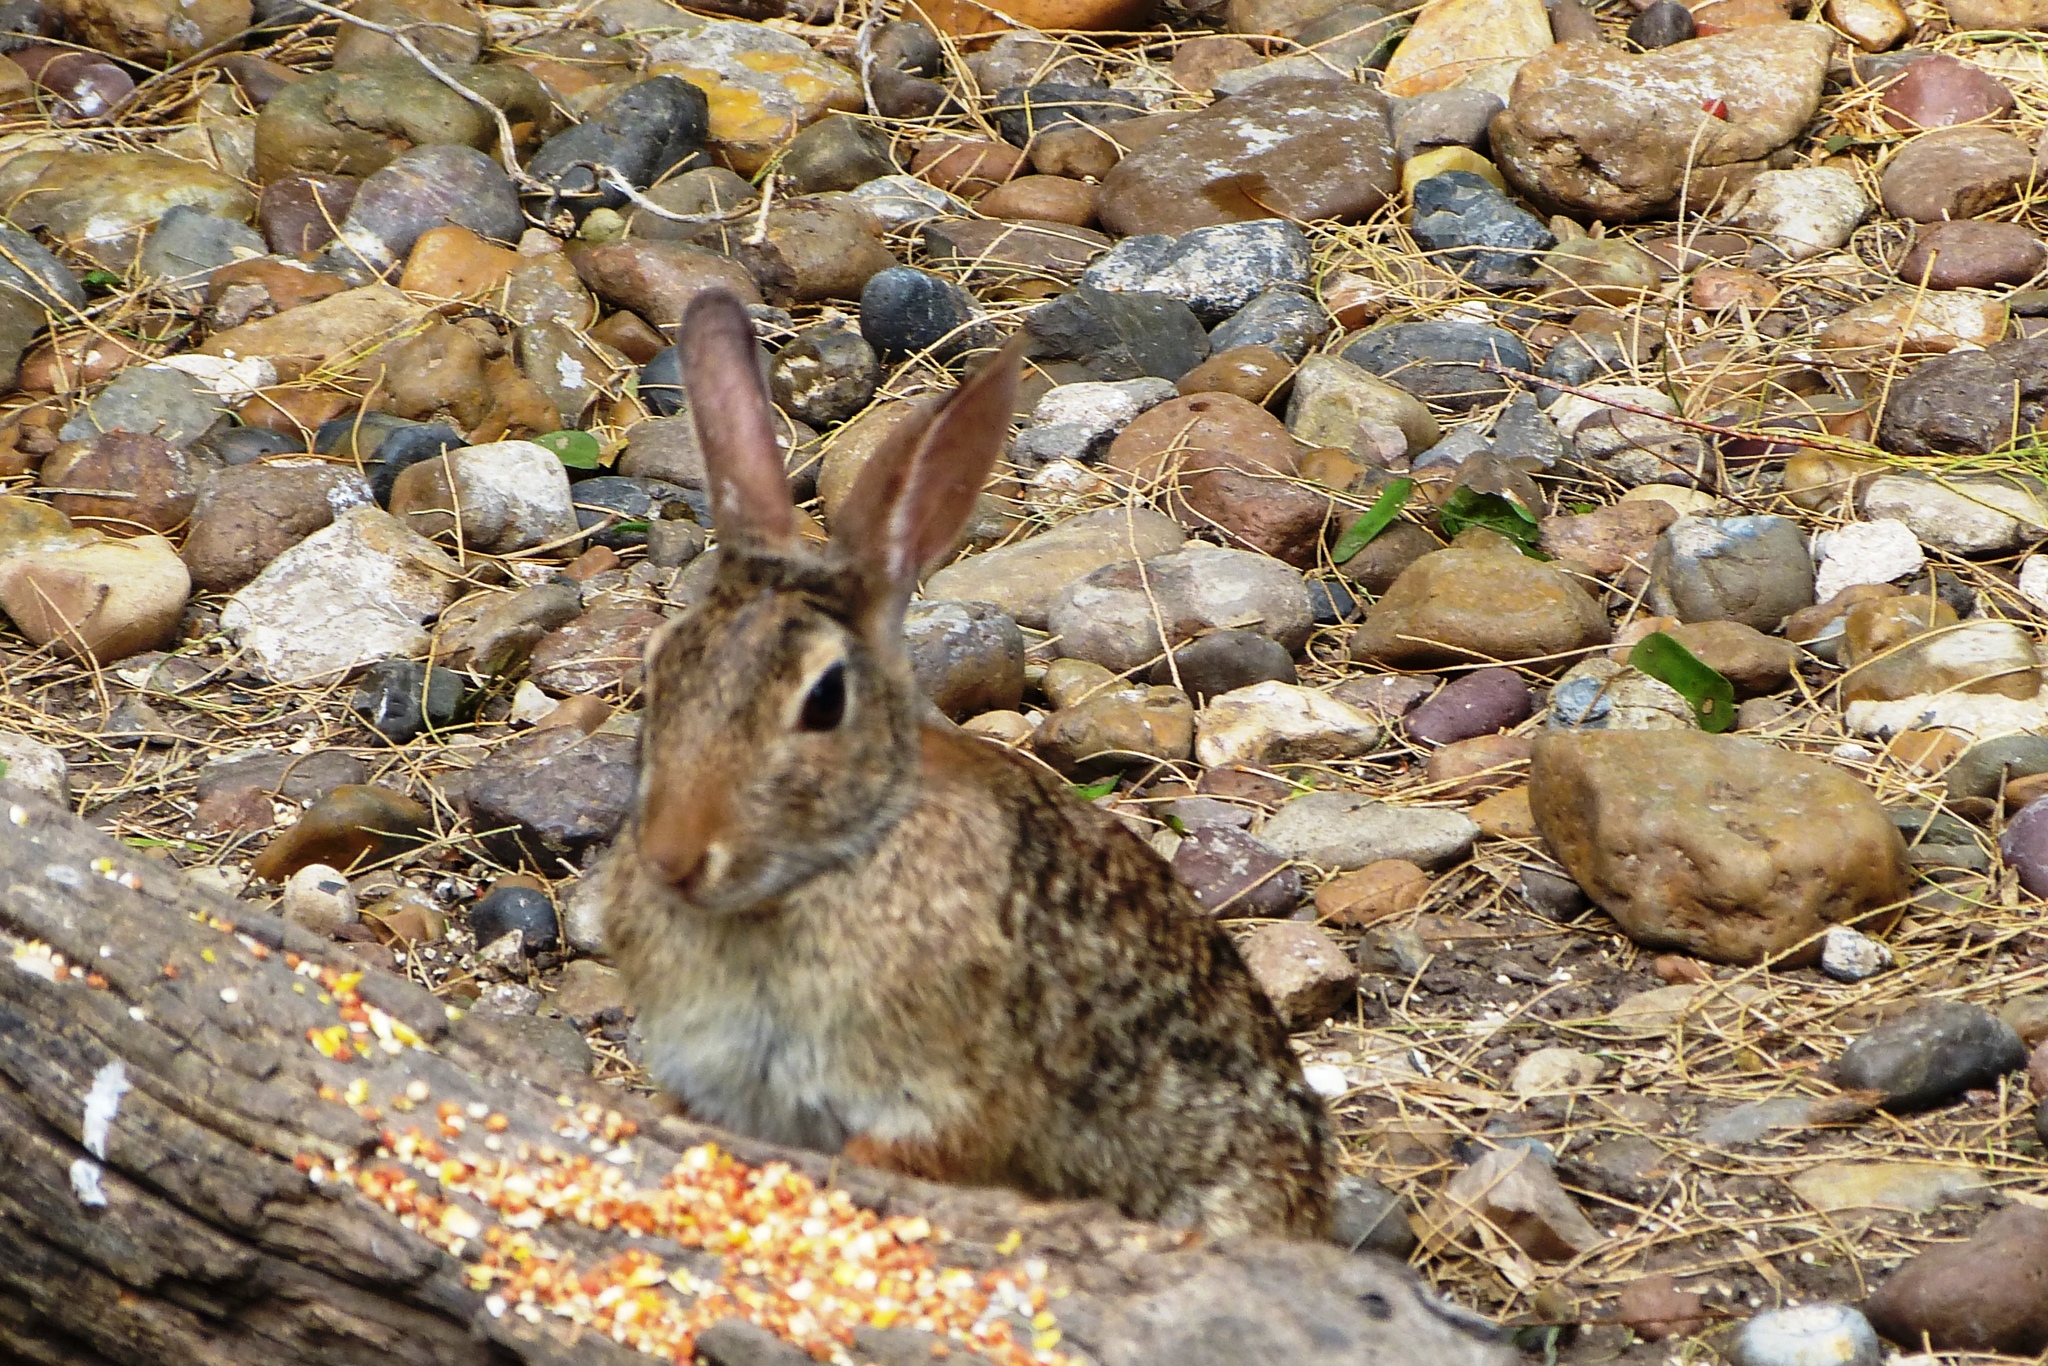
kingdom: Animalia
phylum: Chordata
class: Mammalia
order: Lagomorpha
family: Leporidae
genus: Sylvilagus
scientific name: Sylvilagus floridanus
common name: Eastern cottontail
